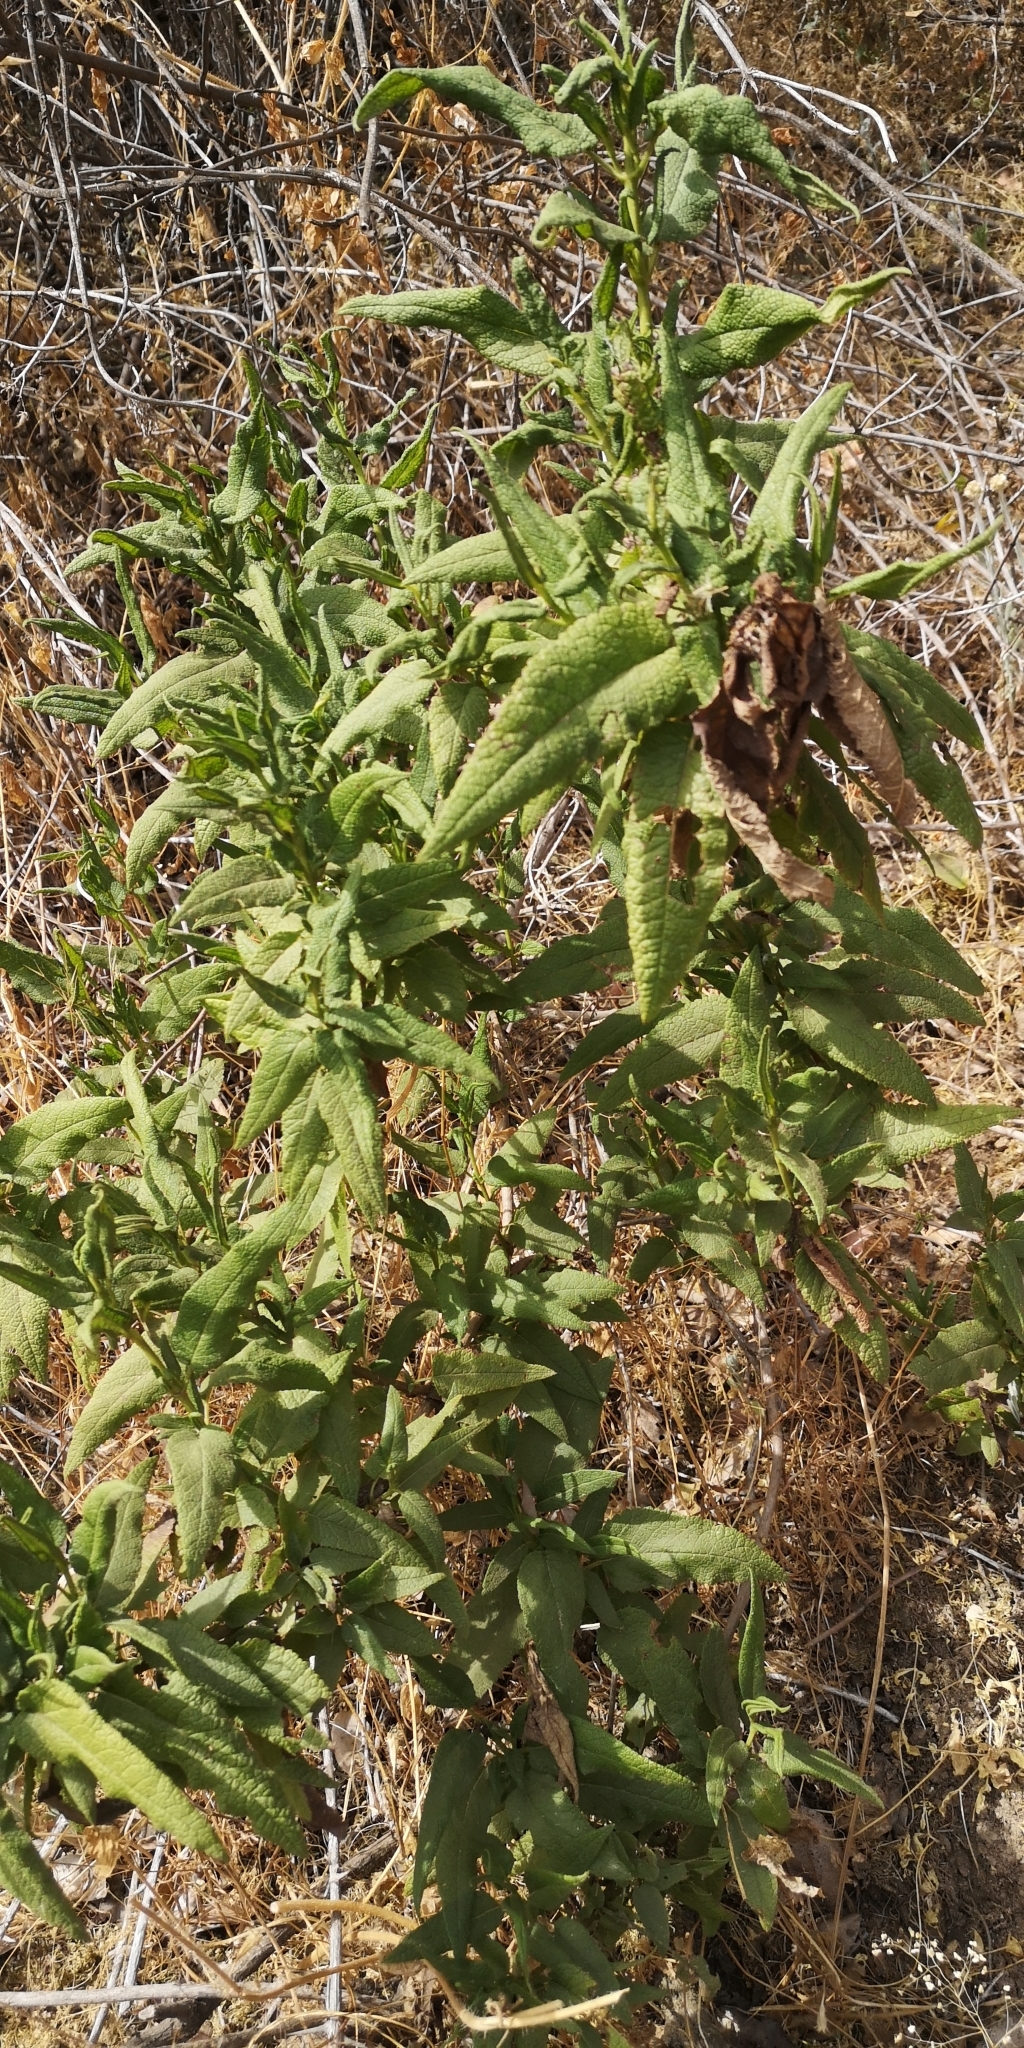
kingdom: Plantae
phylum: Tracheophyta
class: Magnoliopsida
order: Asterales
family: Asteraceae
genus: Aristeguietia
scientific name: Aristeguietia salvia
